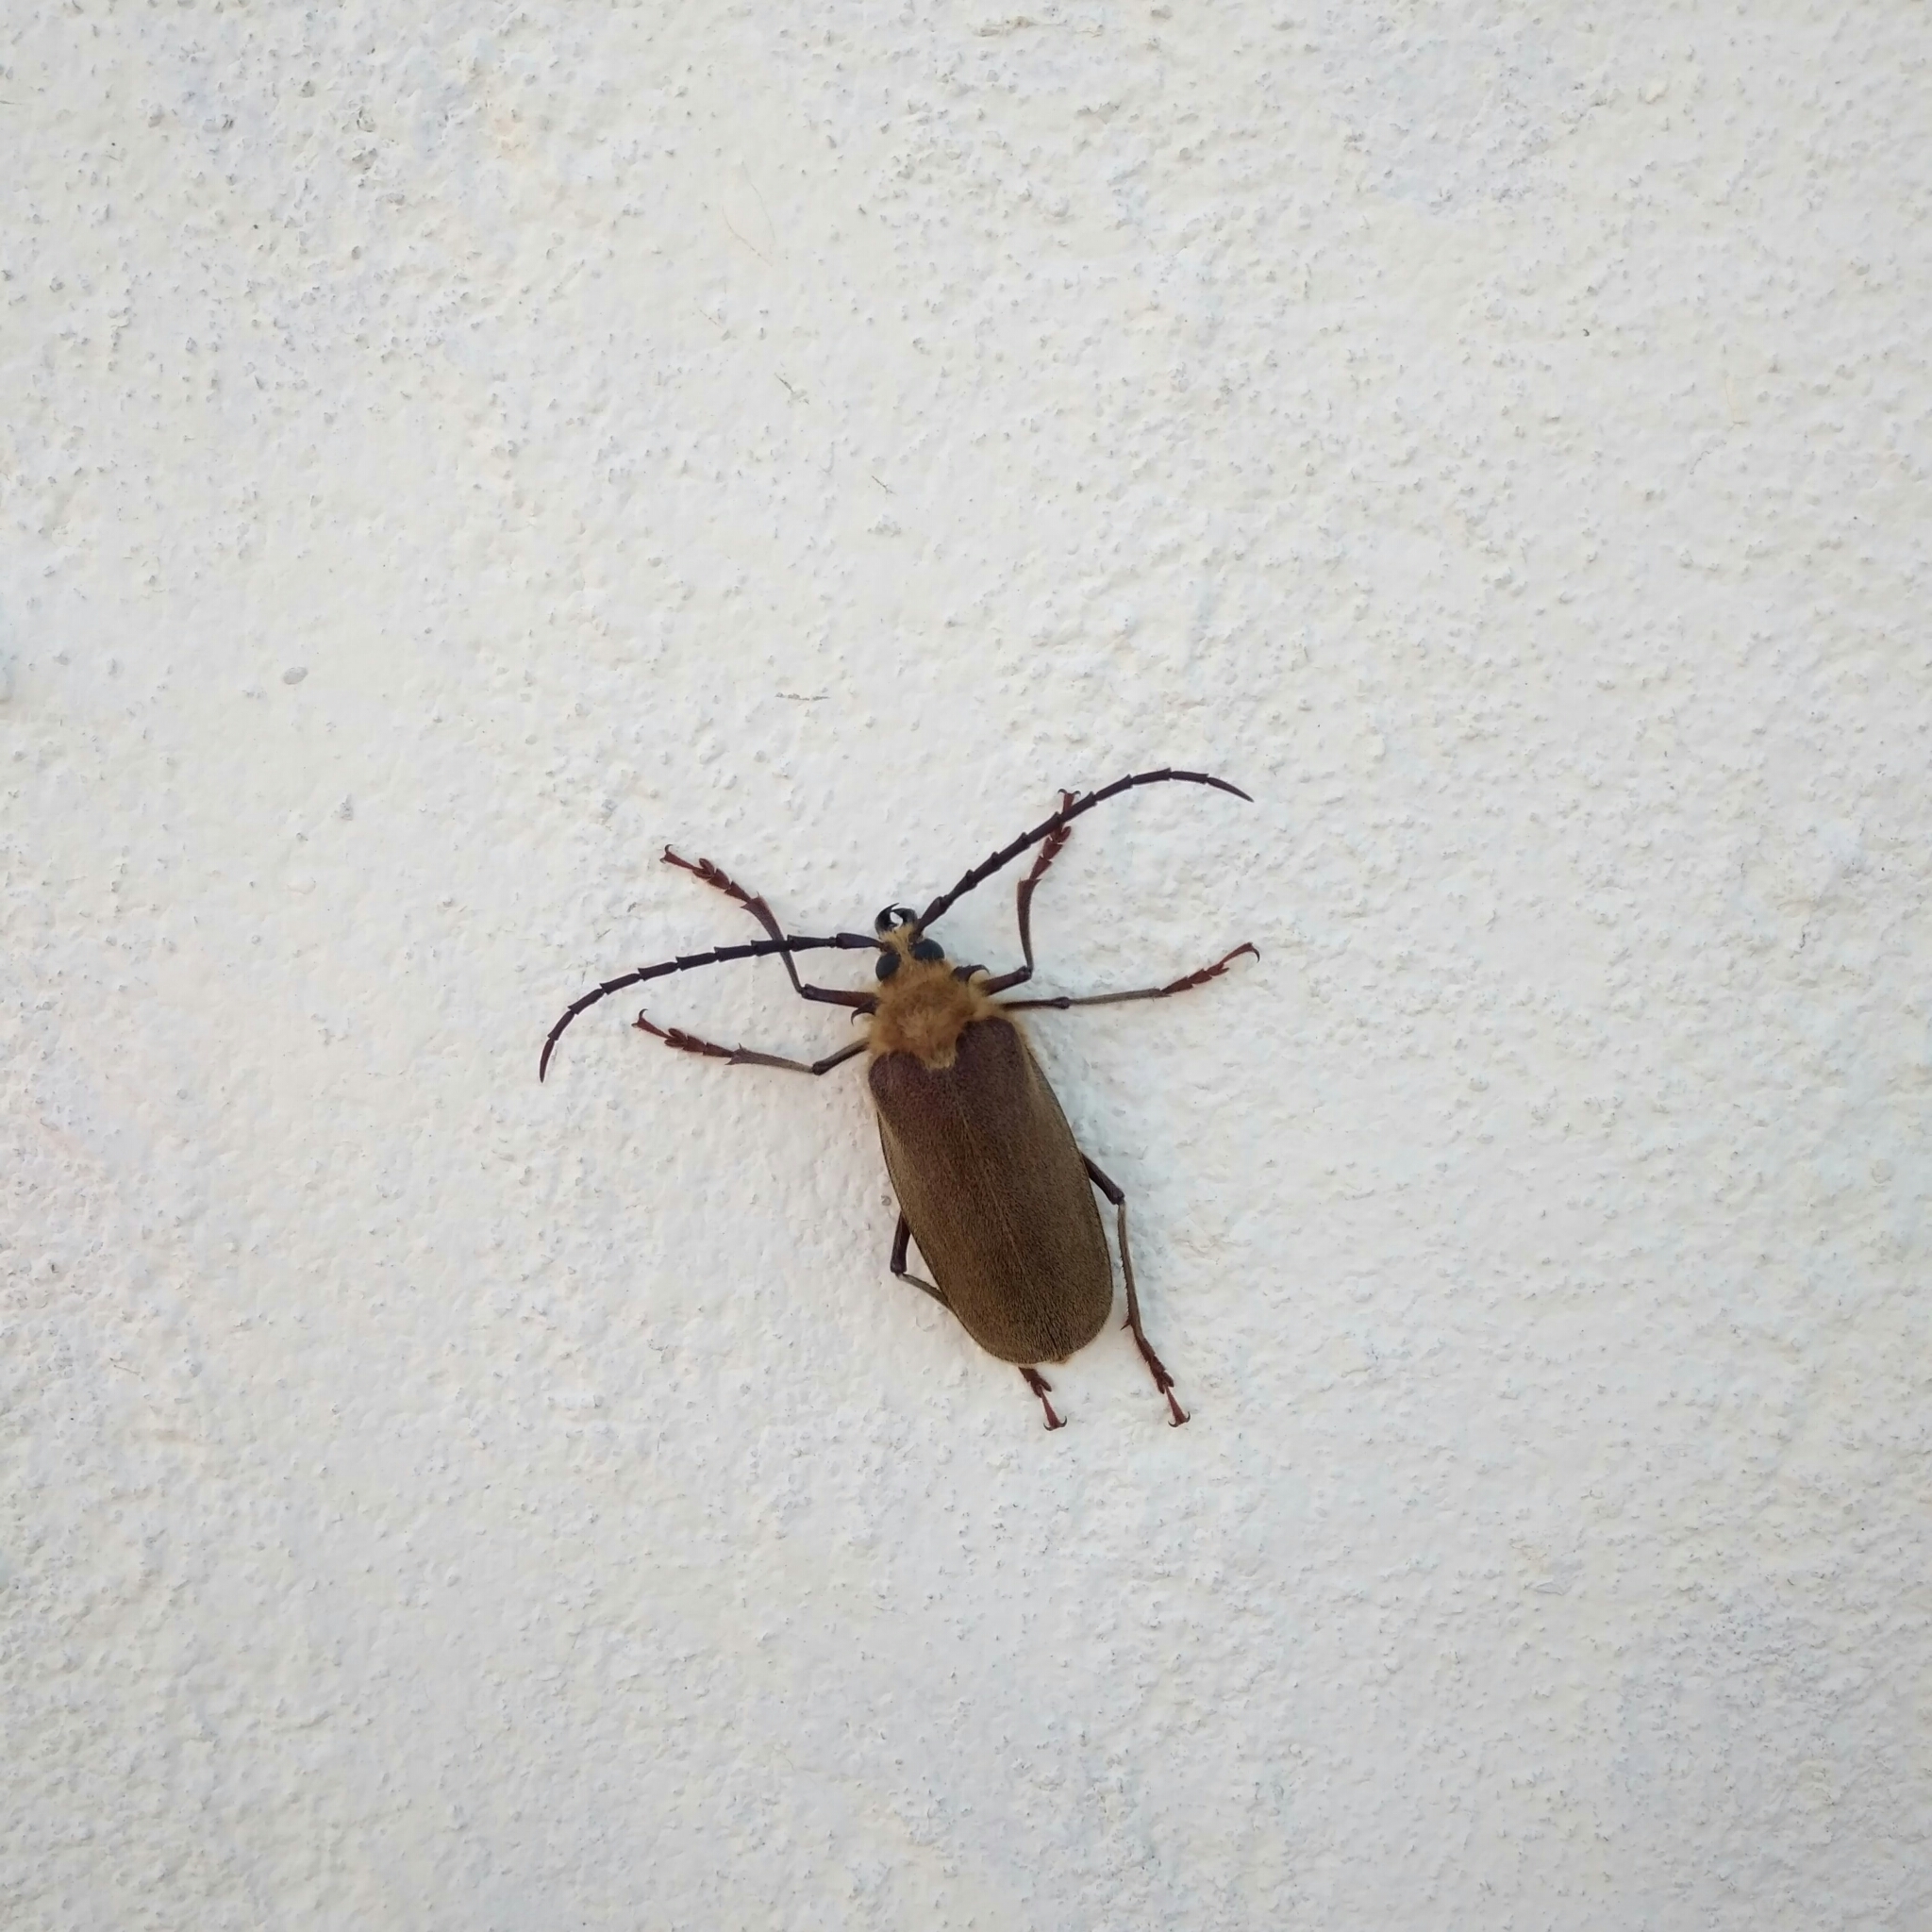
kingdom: Animalia
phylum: Arthropoda
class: Insecta
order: Coleoptera
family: Cerambycidae
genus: Acanthinodera
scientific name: Acanthinodera cumingii
